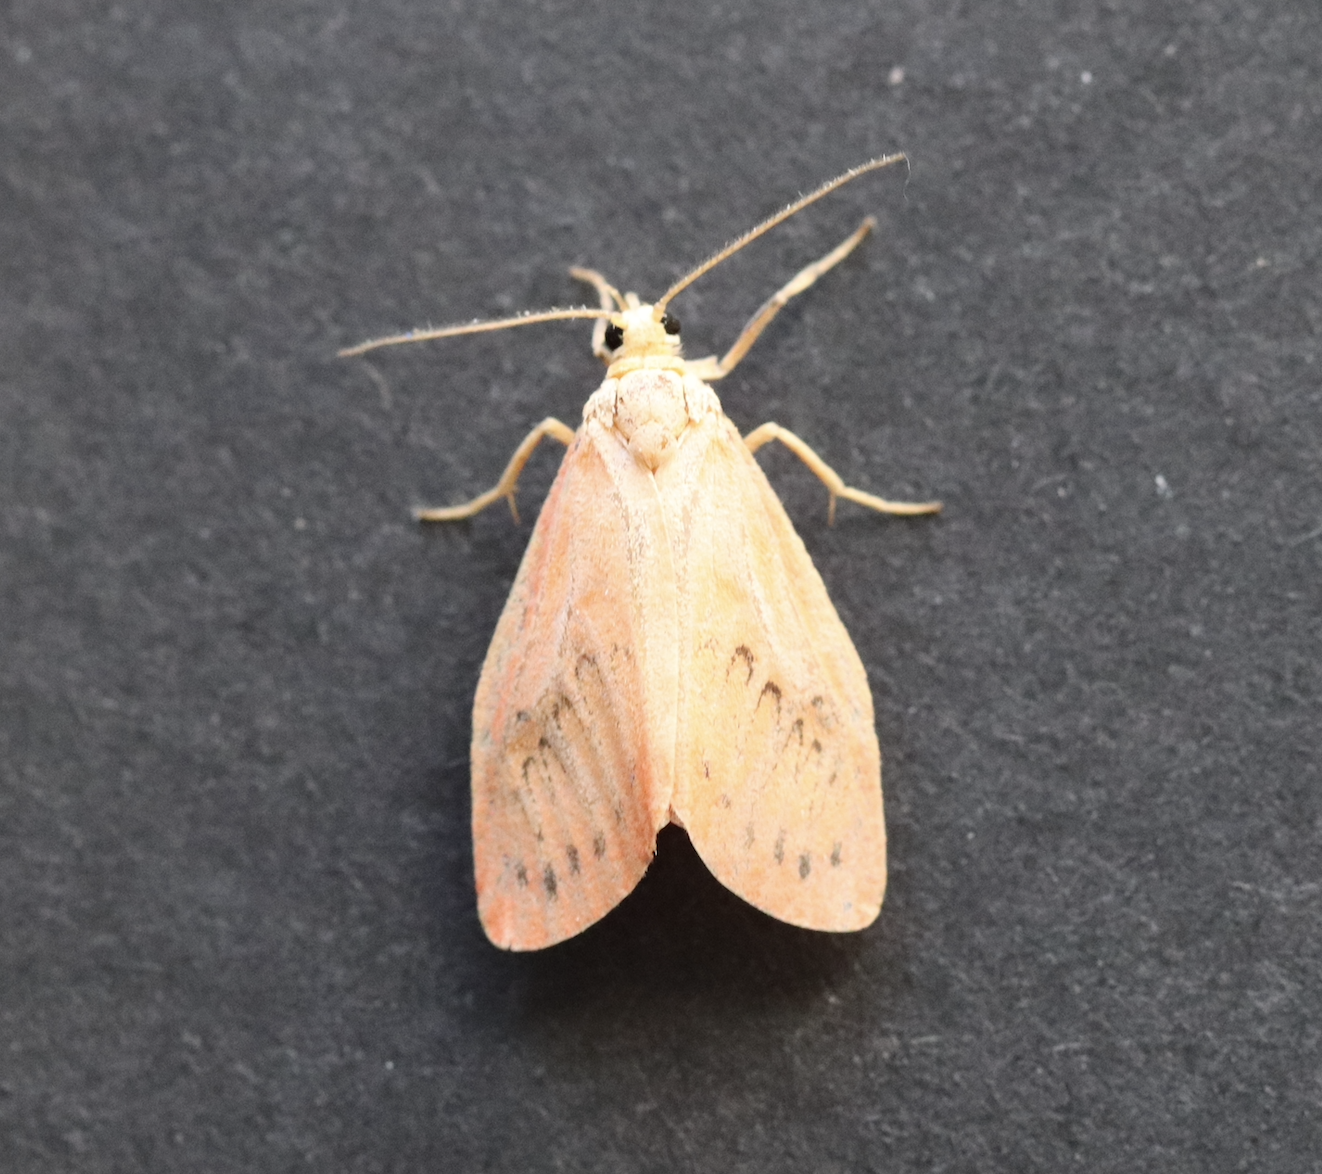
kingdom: Animalia
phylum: Arthropoda
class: Insecta
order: Lepidoptera
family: Erebidae
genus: Miltochrista
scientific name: Miltochrista miniata
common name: Rosy footman
